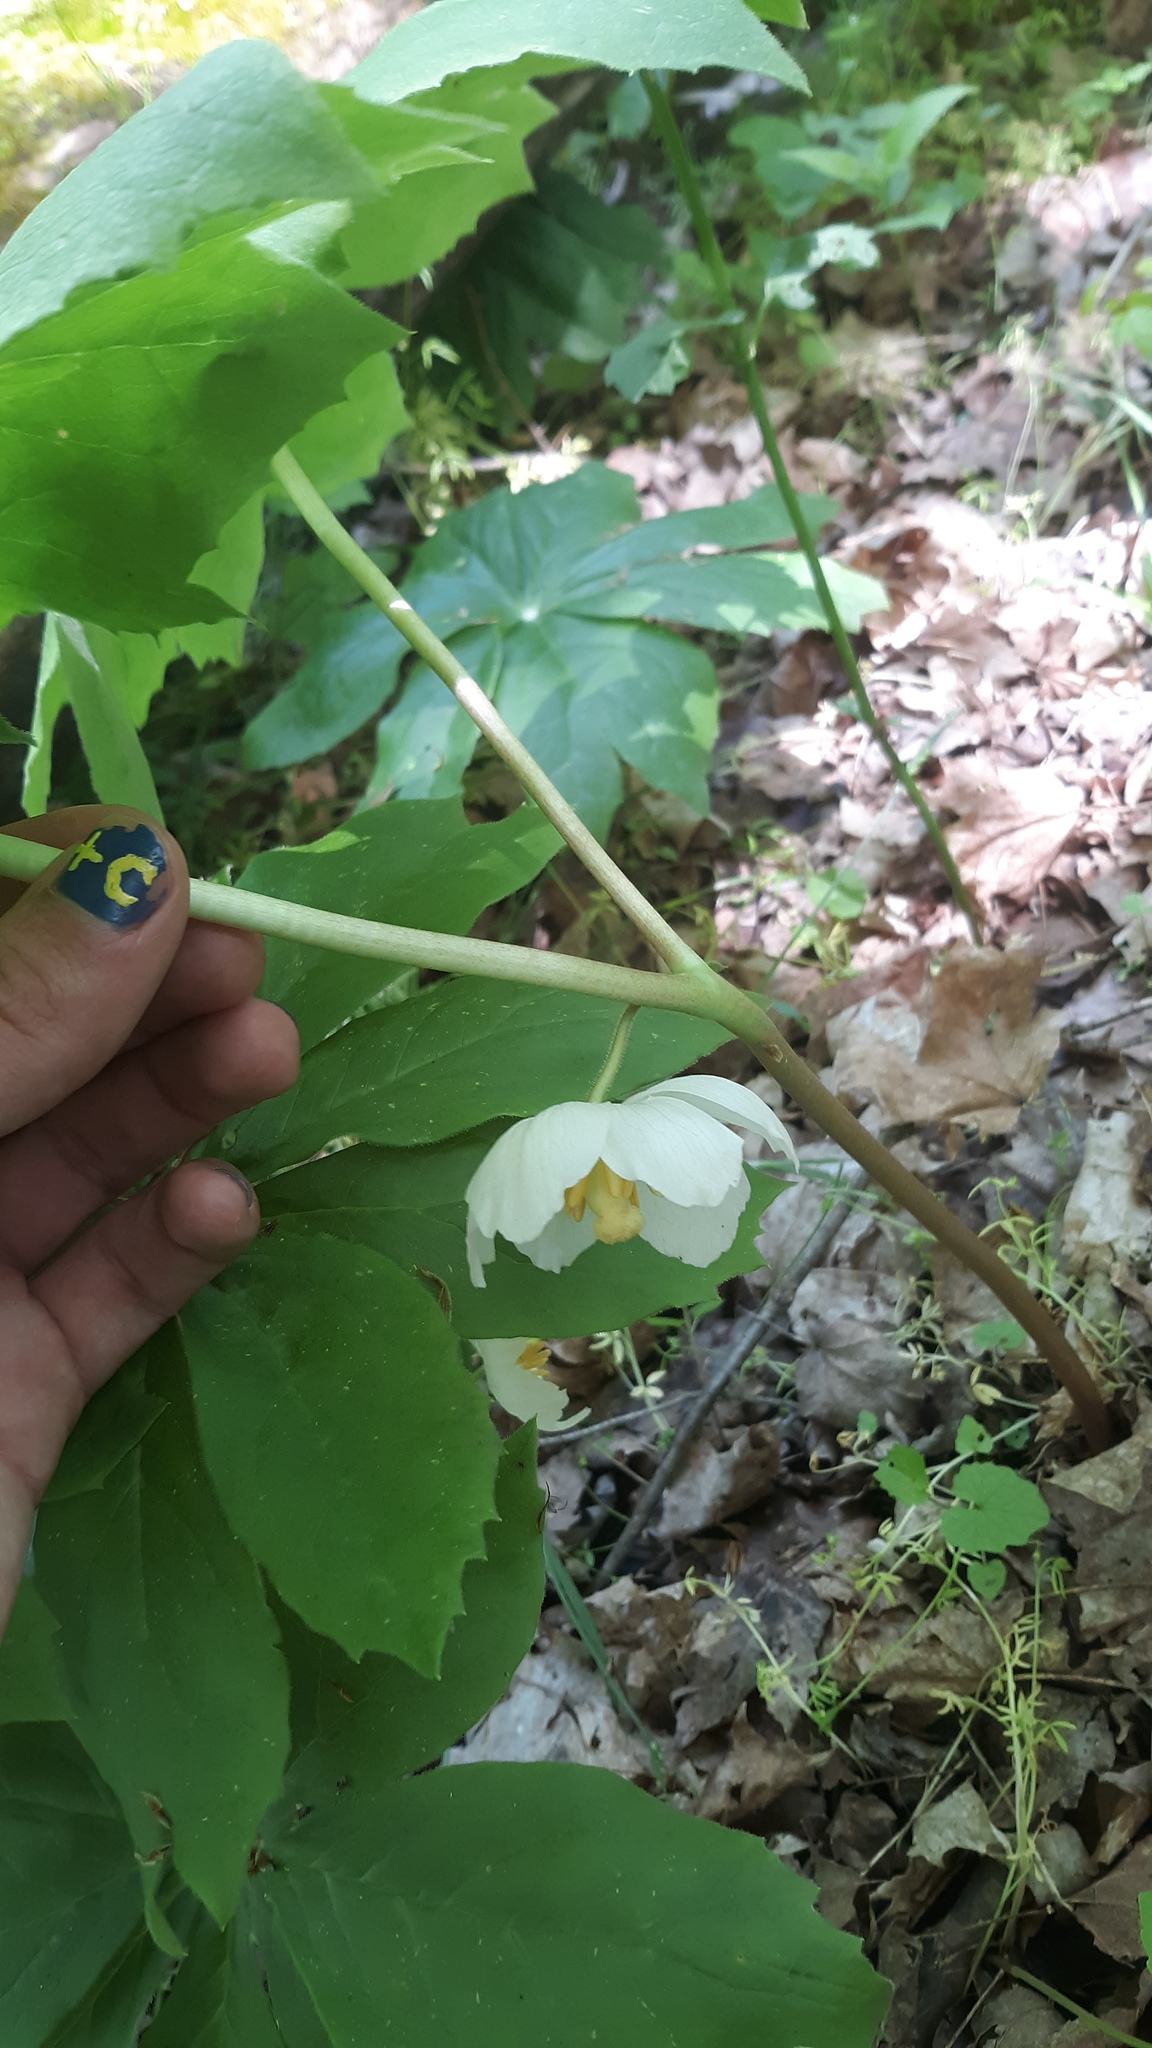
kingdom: Plantae
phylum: Tracheophyta
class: Magnoliopsida
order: Ranunculales
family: Berberidaceae
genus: Podophyllum
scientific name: Podophyllum peltatum
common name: Wild mandrake
